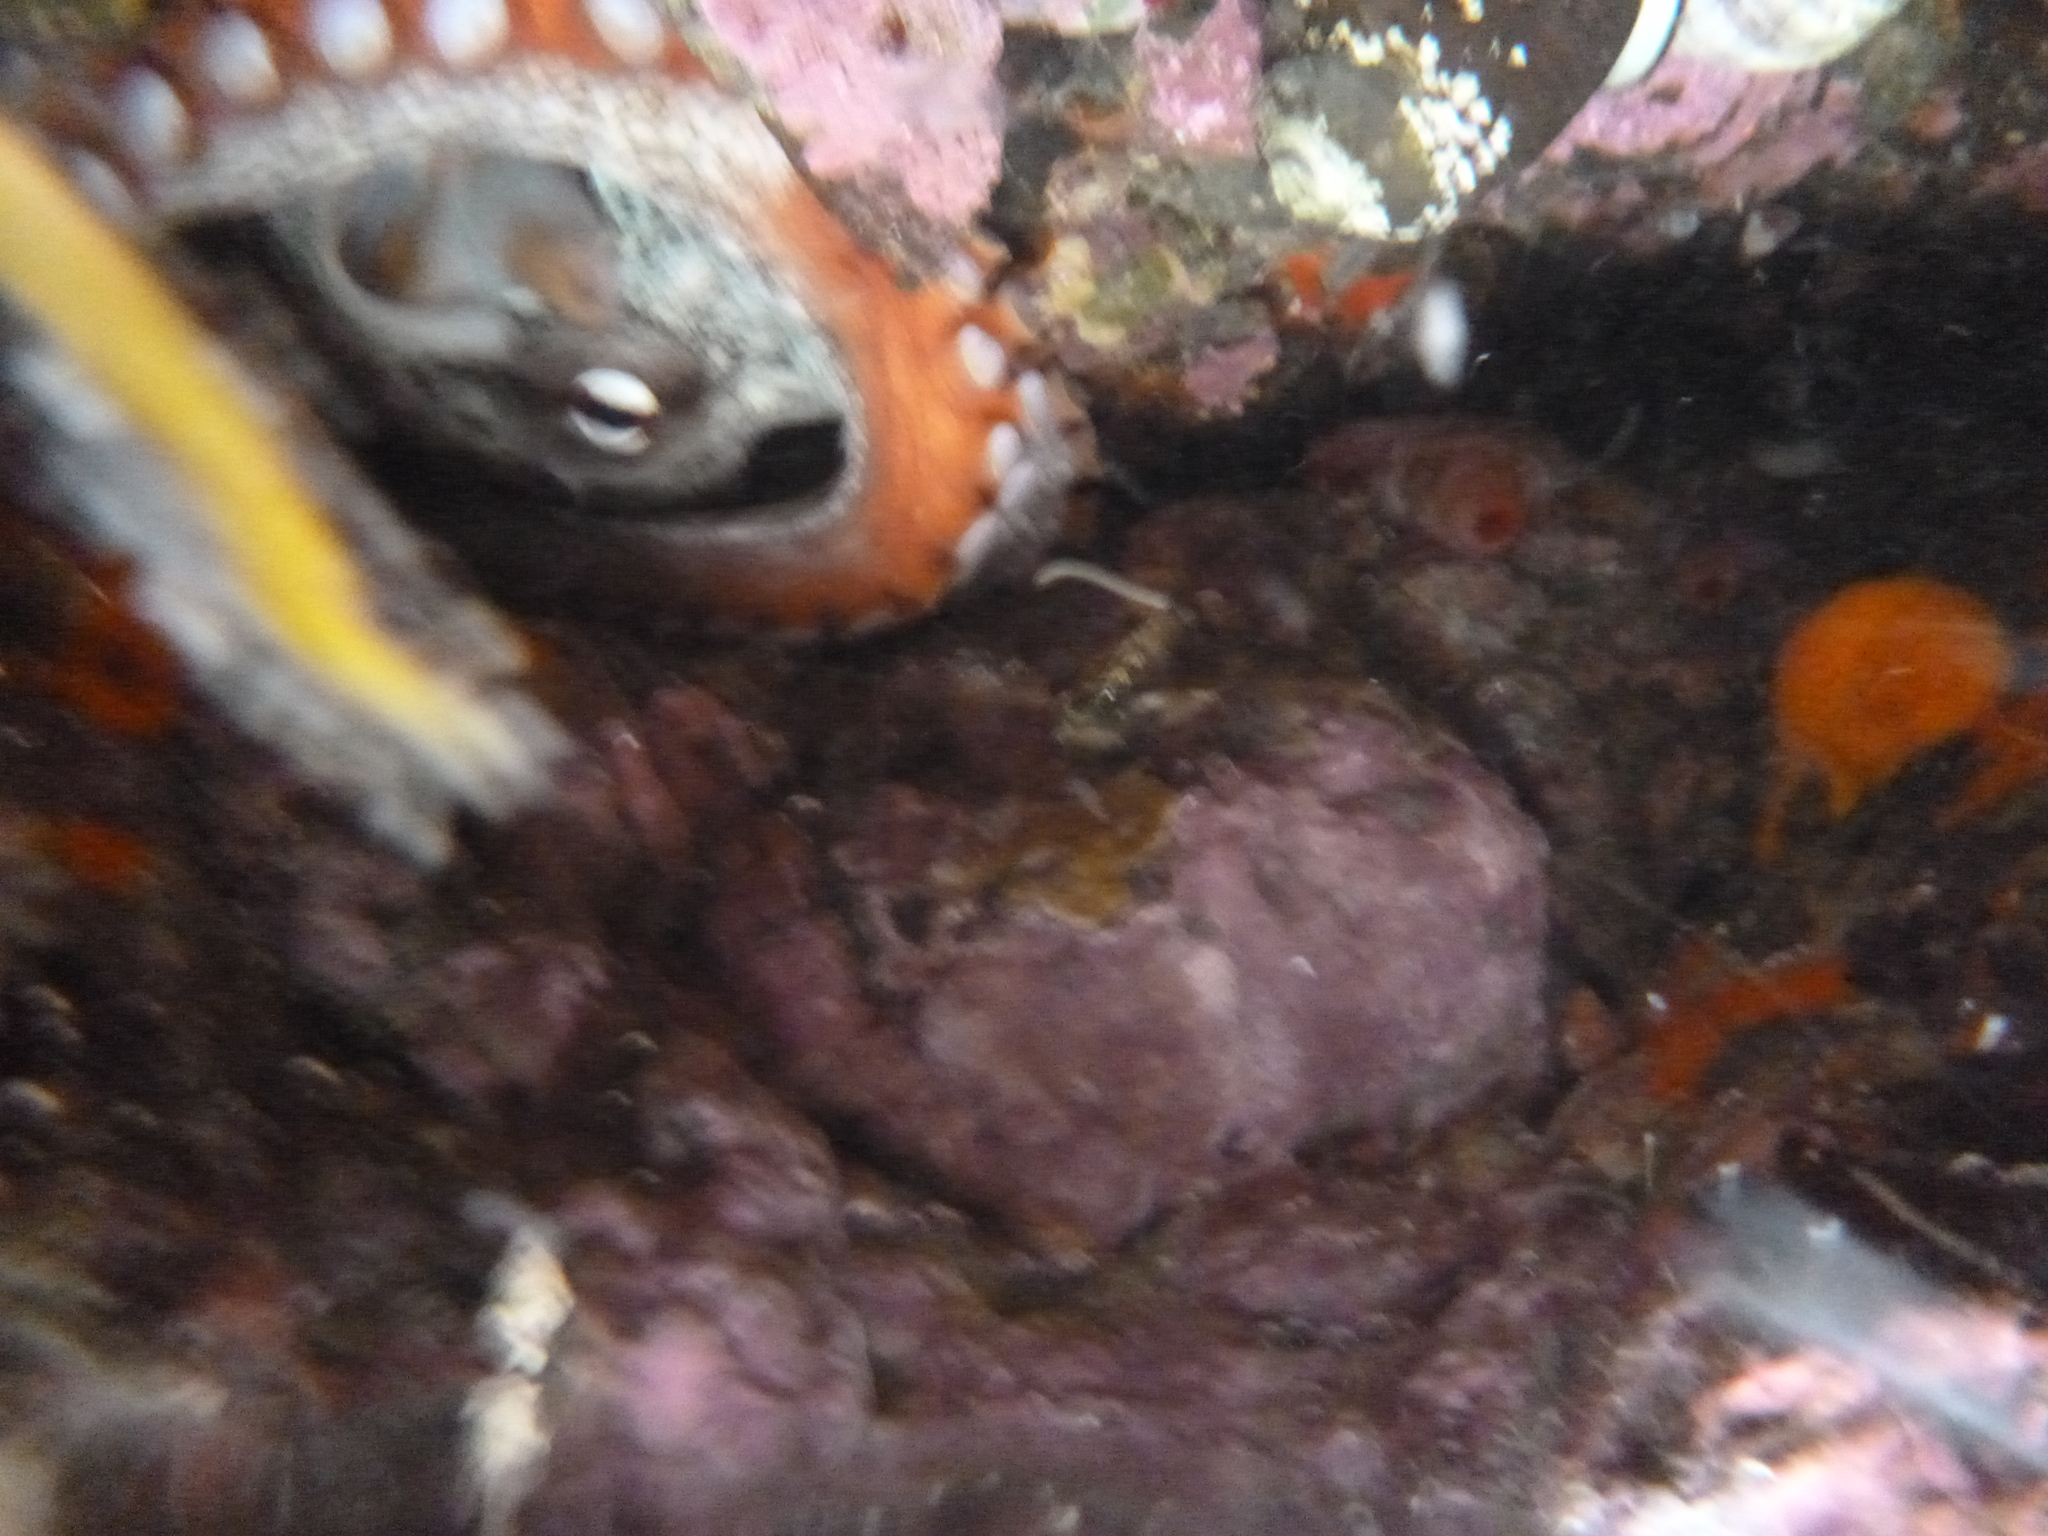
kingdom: Animalia
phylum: Mollusca
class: Cephalopoda
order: Octopoda
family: Octopodidae
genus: Octopus
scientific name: Octopus tetricus
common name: Sydney octopus
